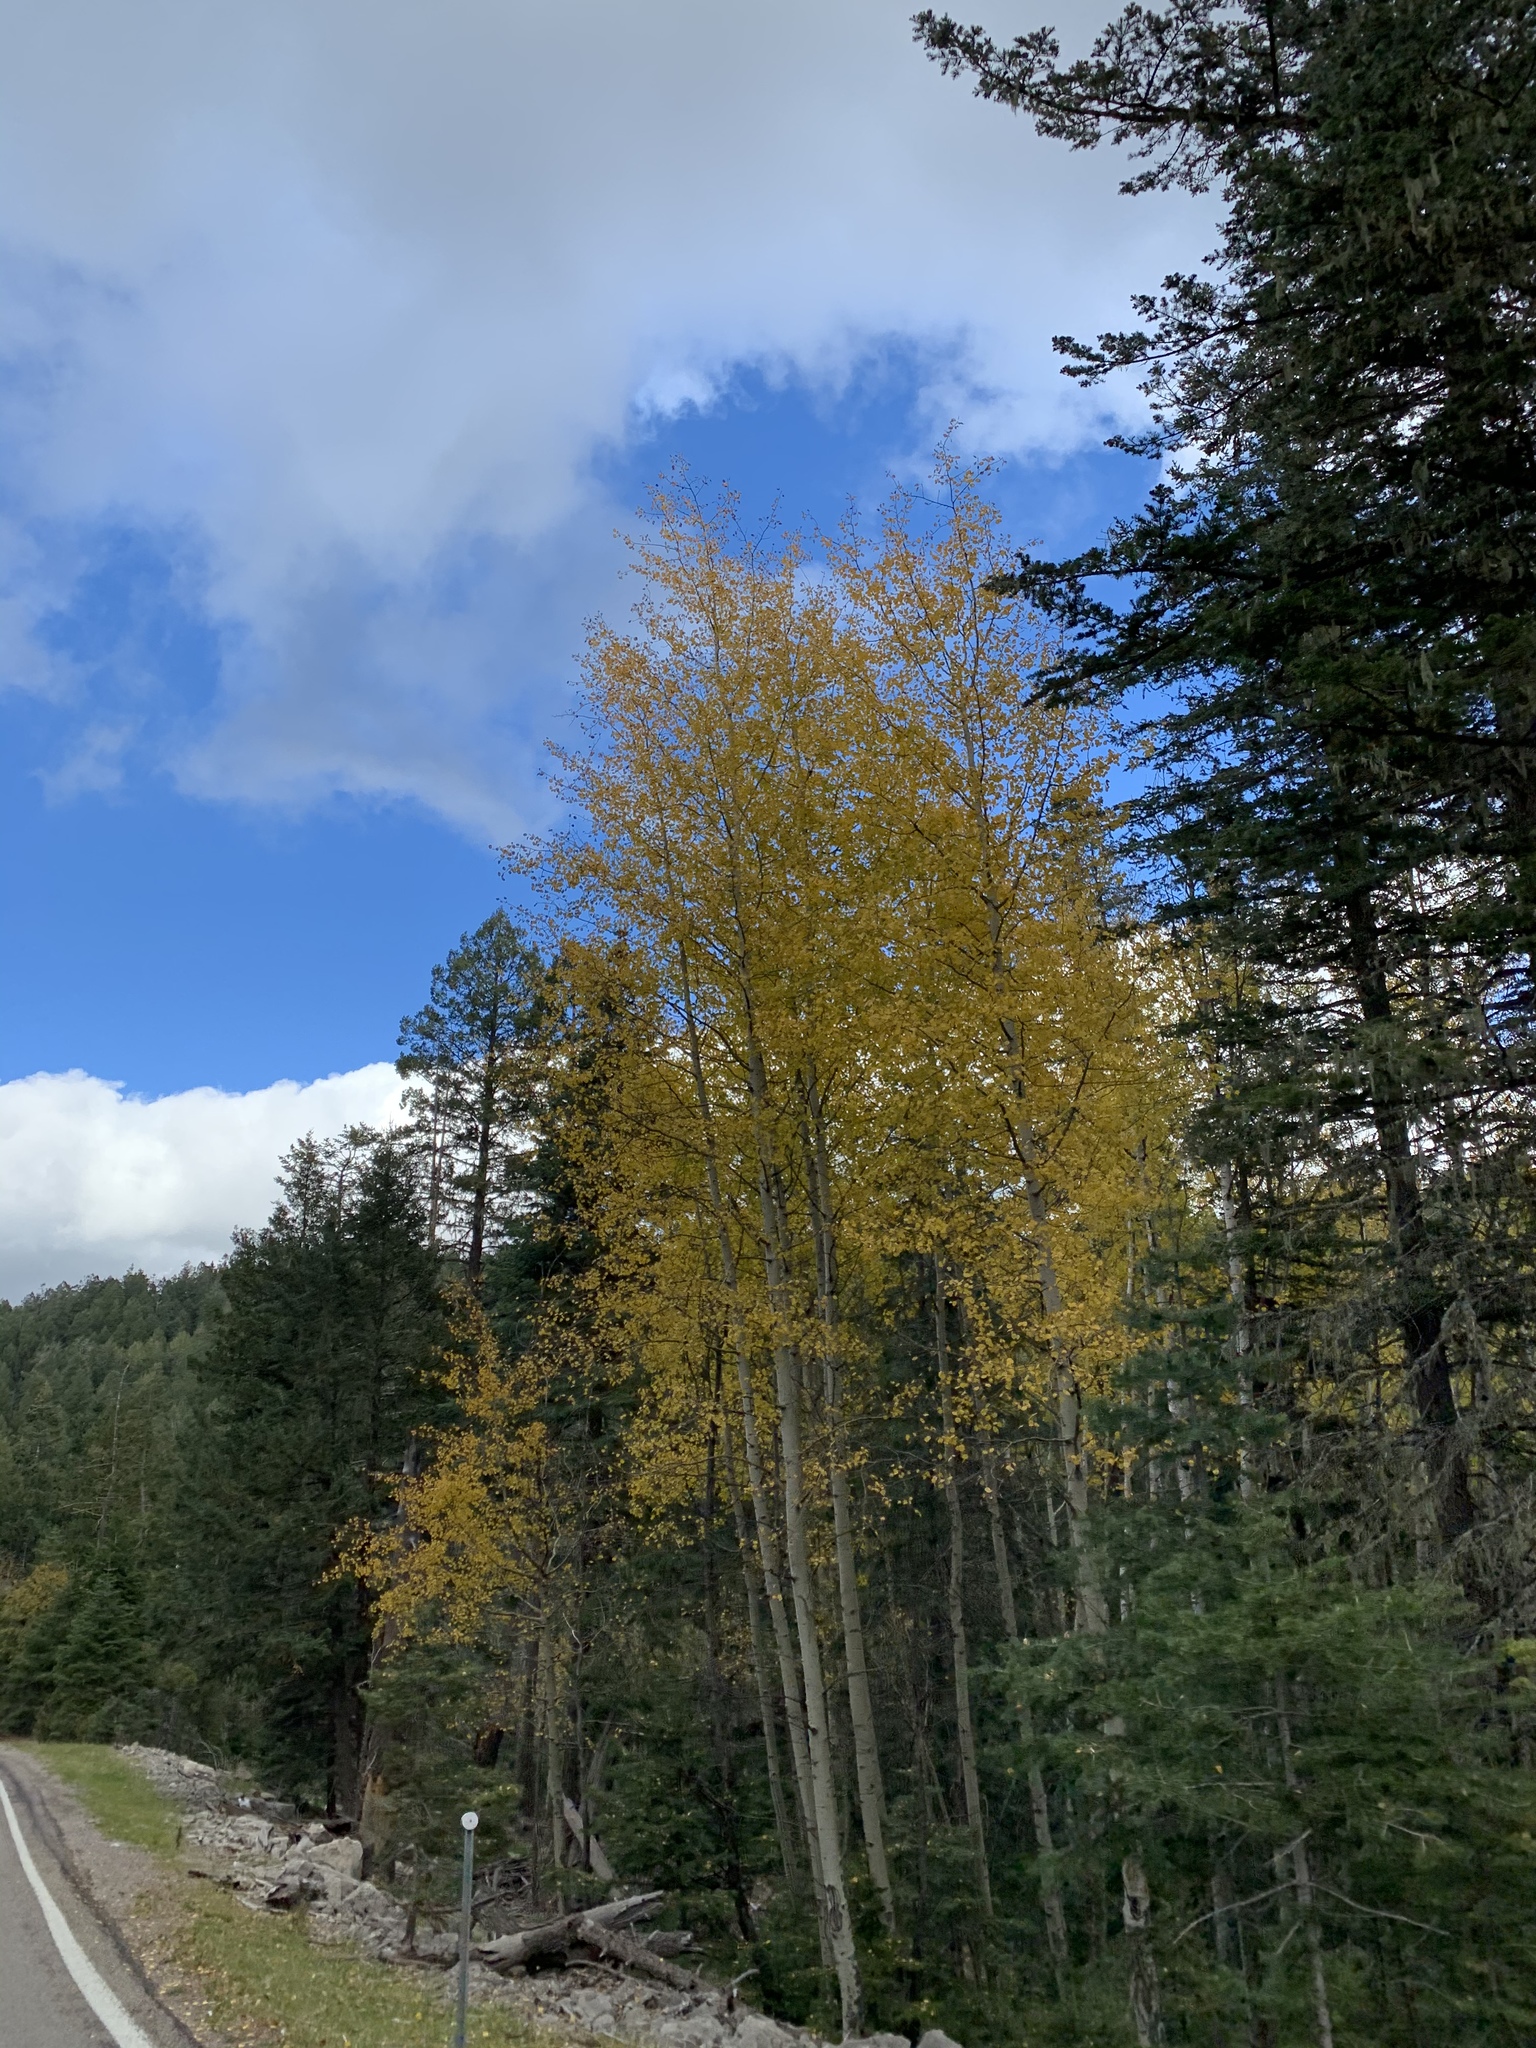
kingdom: Plantae
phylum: Tracheophyta
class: Magnoliopsida
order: Malpighiales
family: Salicaceae
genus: Populus
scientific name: Populus tremuloides
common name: Quaking aspen
